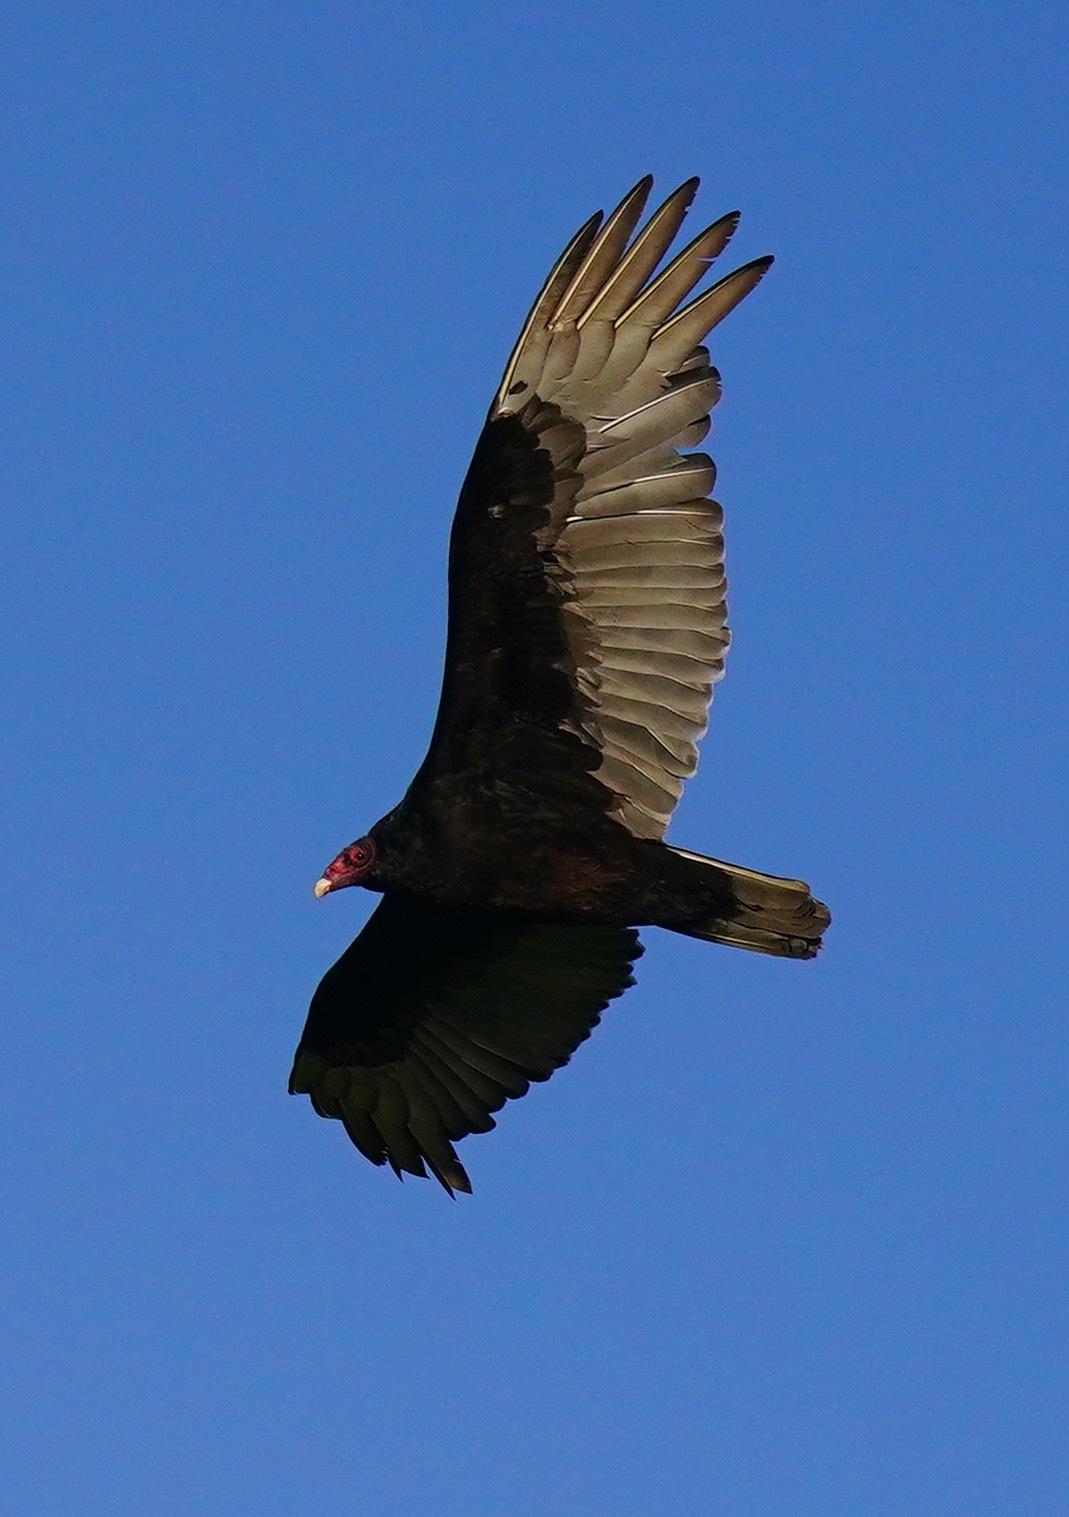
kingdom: Animalia
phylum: Chordata
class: Aves
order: Accipitriformes
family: Cathartidae
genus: Cathartes
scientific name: Cathartes aura
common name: Turkey vulture
